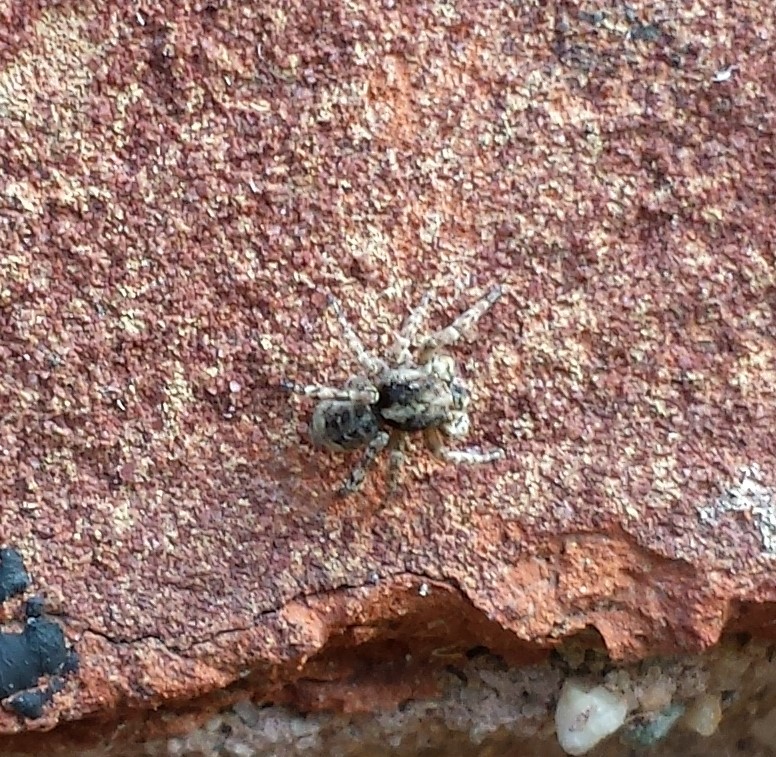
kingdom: Animalia
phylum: Arthropoda
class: Arachnida
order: Araneae
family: Salticidae
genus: Attulus
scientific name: Attulus fasciger
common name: Asiatic wall jumping spider
